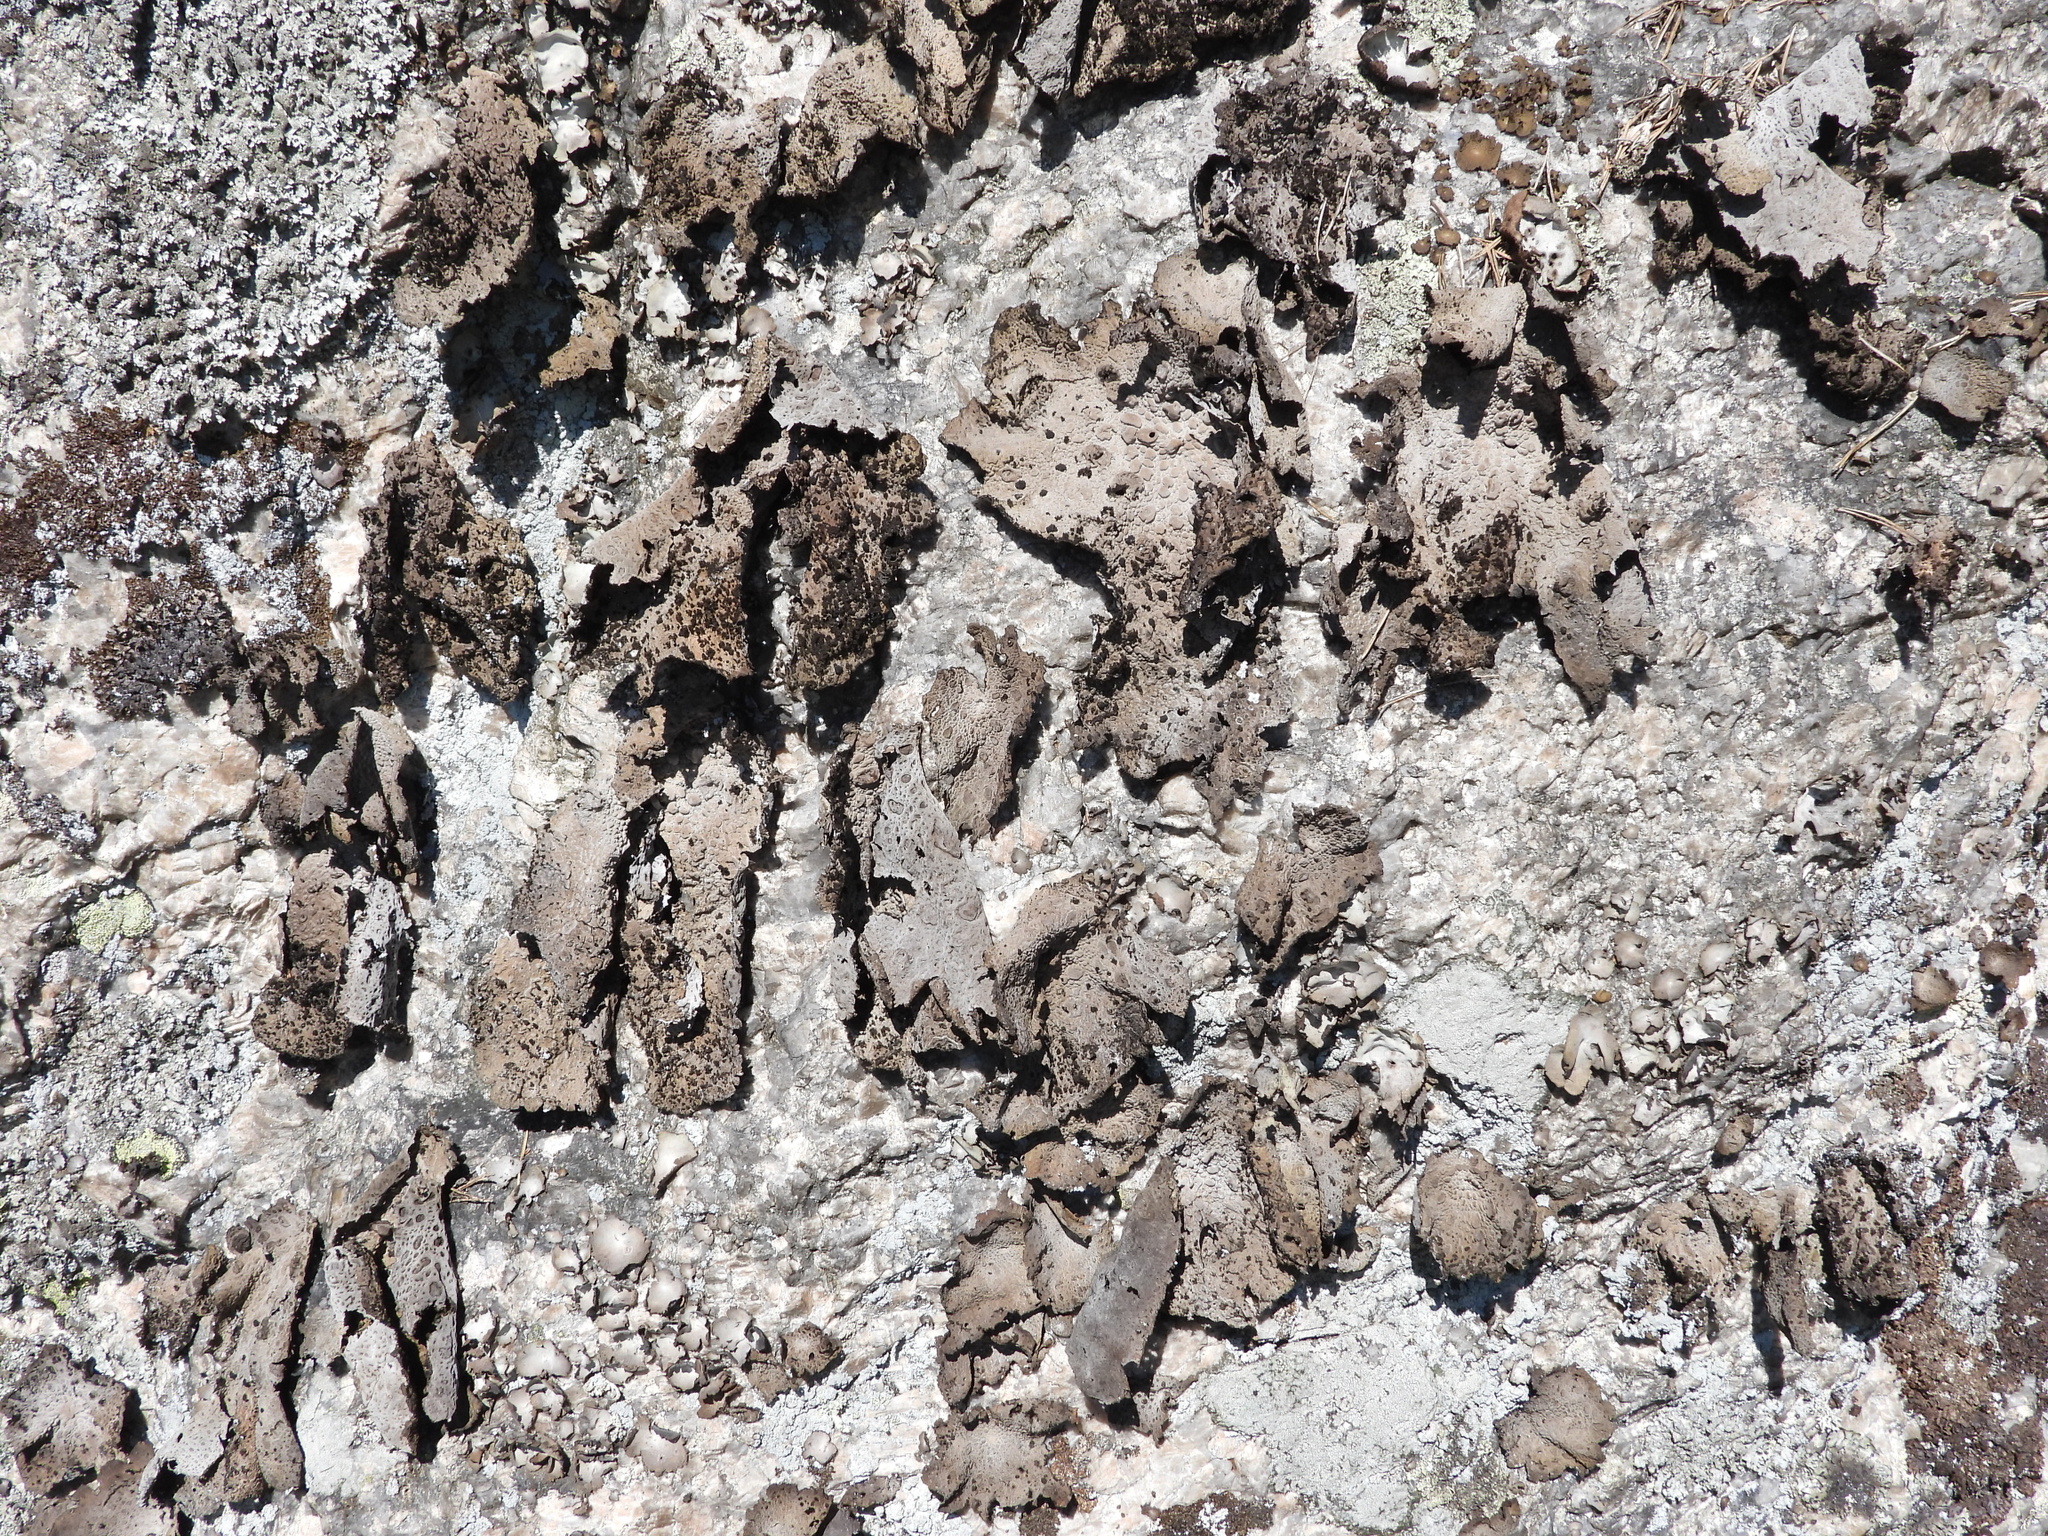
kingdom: Fungi
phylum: Ascomycota
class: Lecanoromycetes
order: Umbilicariales
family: Umbilicariaceae
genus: Lasallia
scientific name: Lasallia pustulata
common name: Blistered toadskin lichen
